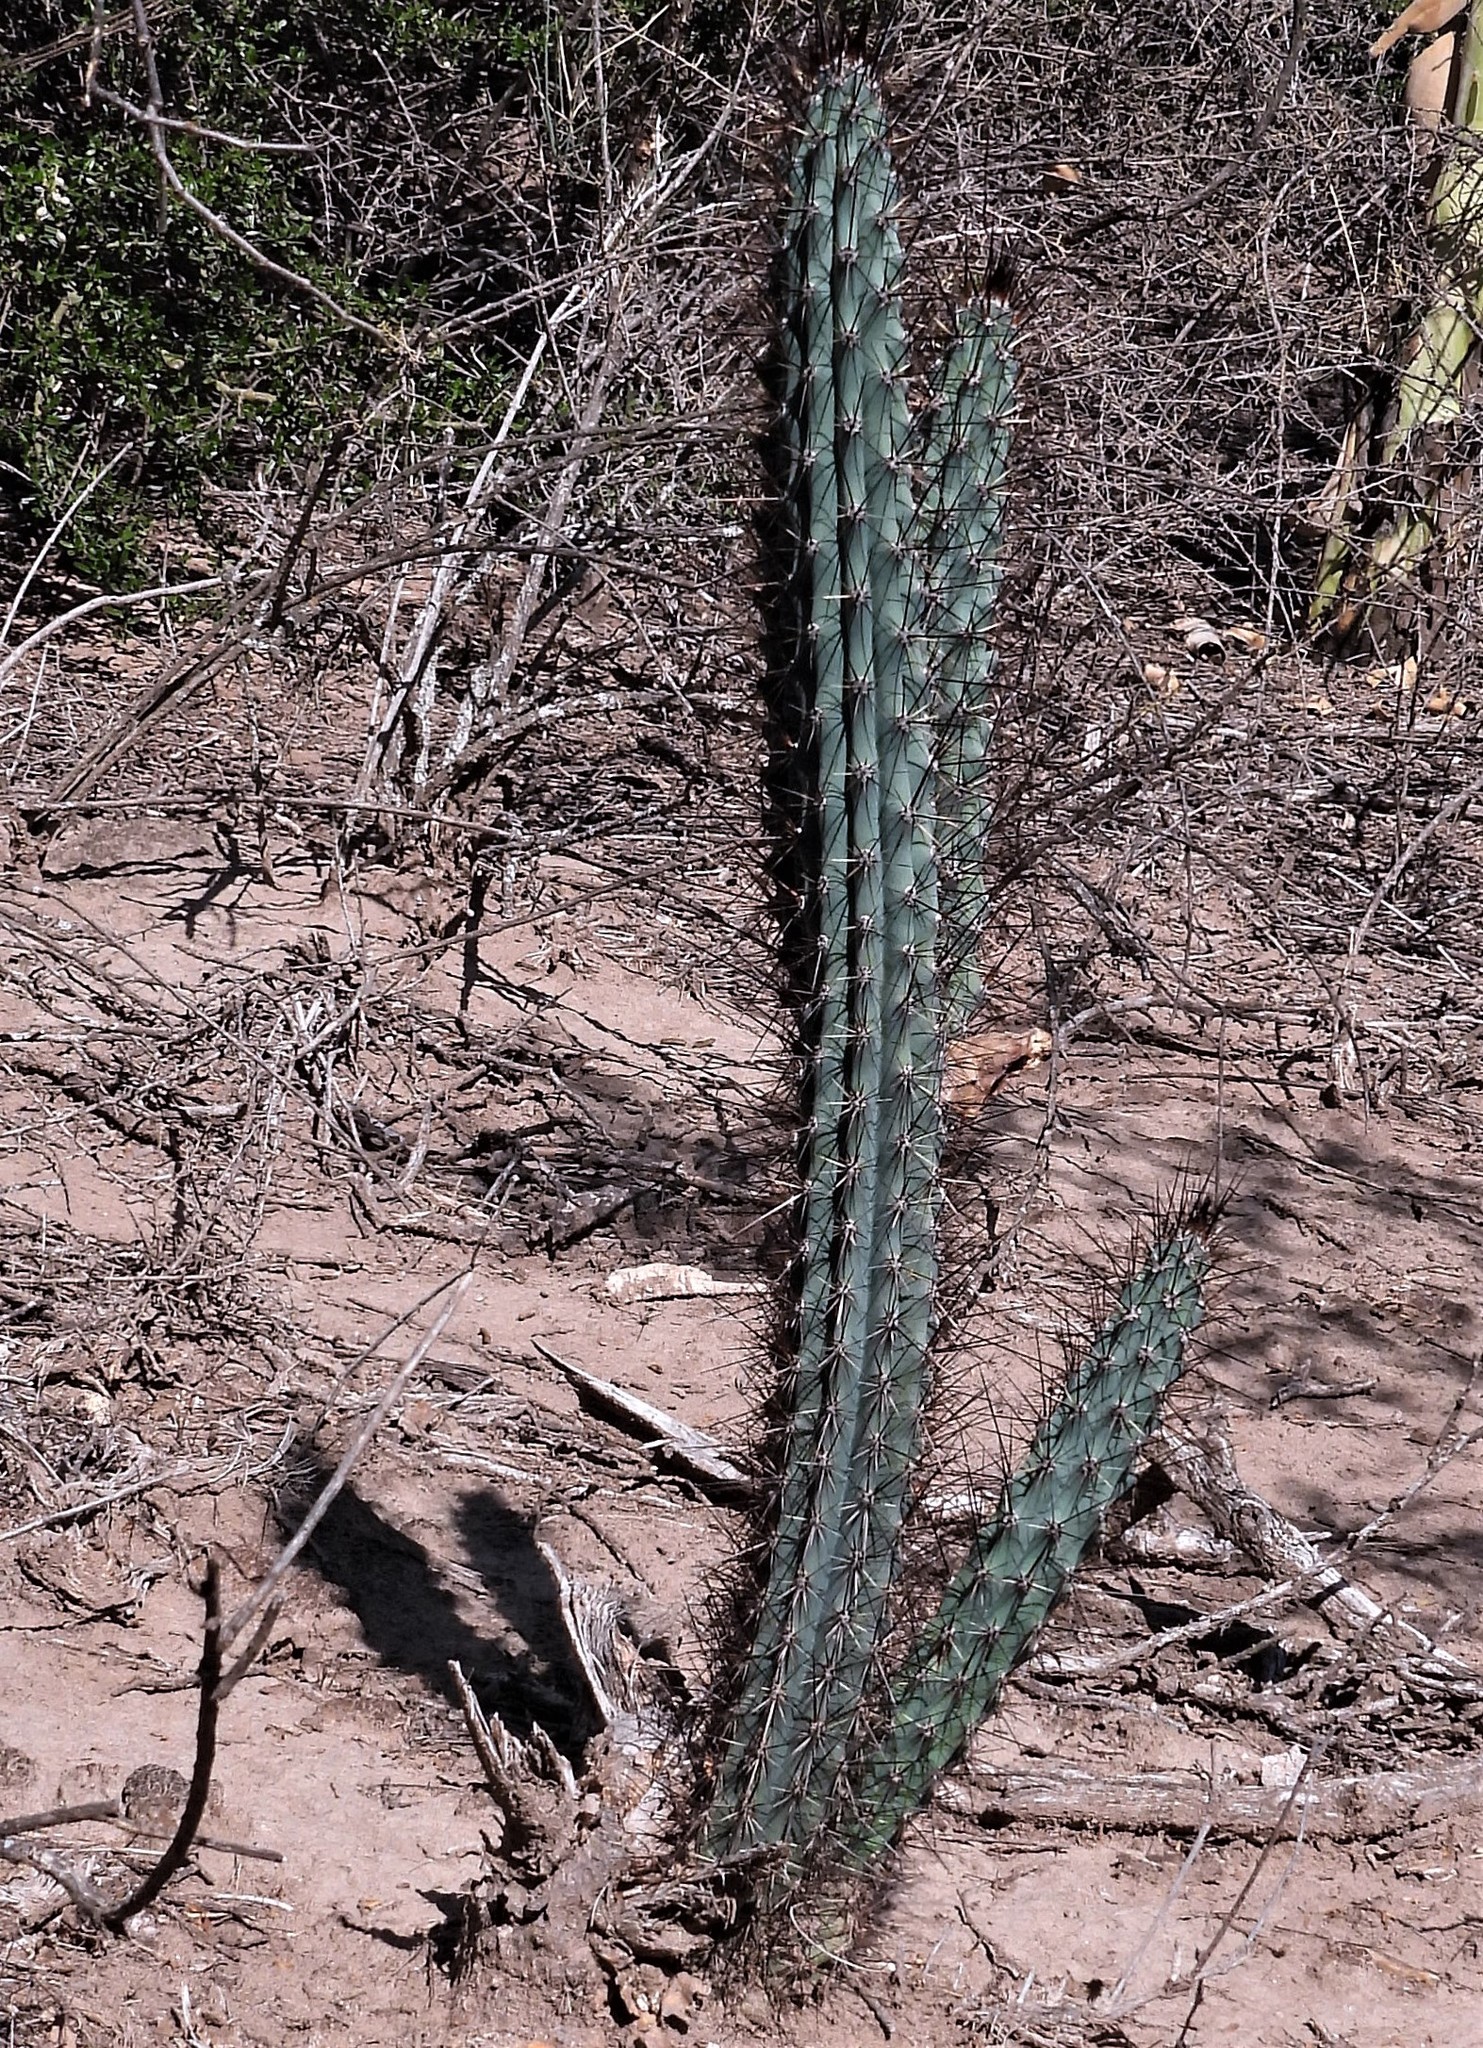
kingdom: Plantae
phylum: Tracheophyta
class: Magnoliopsida
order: Caryophyllales
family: Cactaceae
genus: Cereus
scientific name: Cereus aethiops
